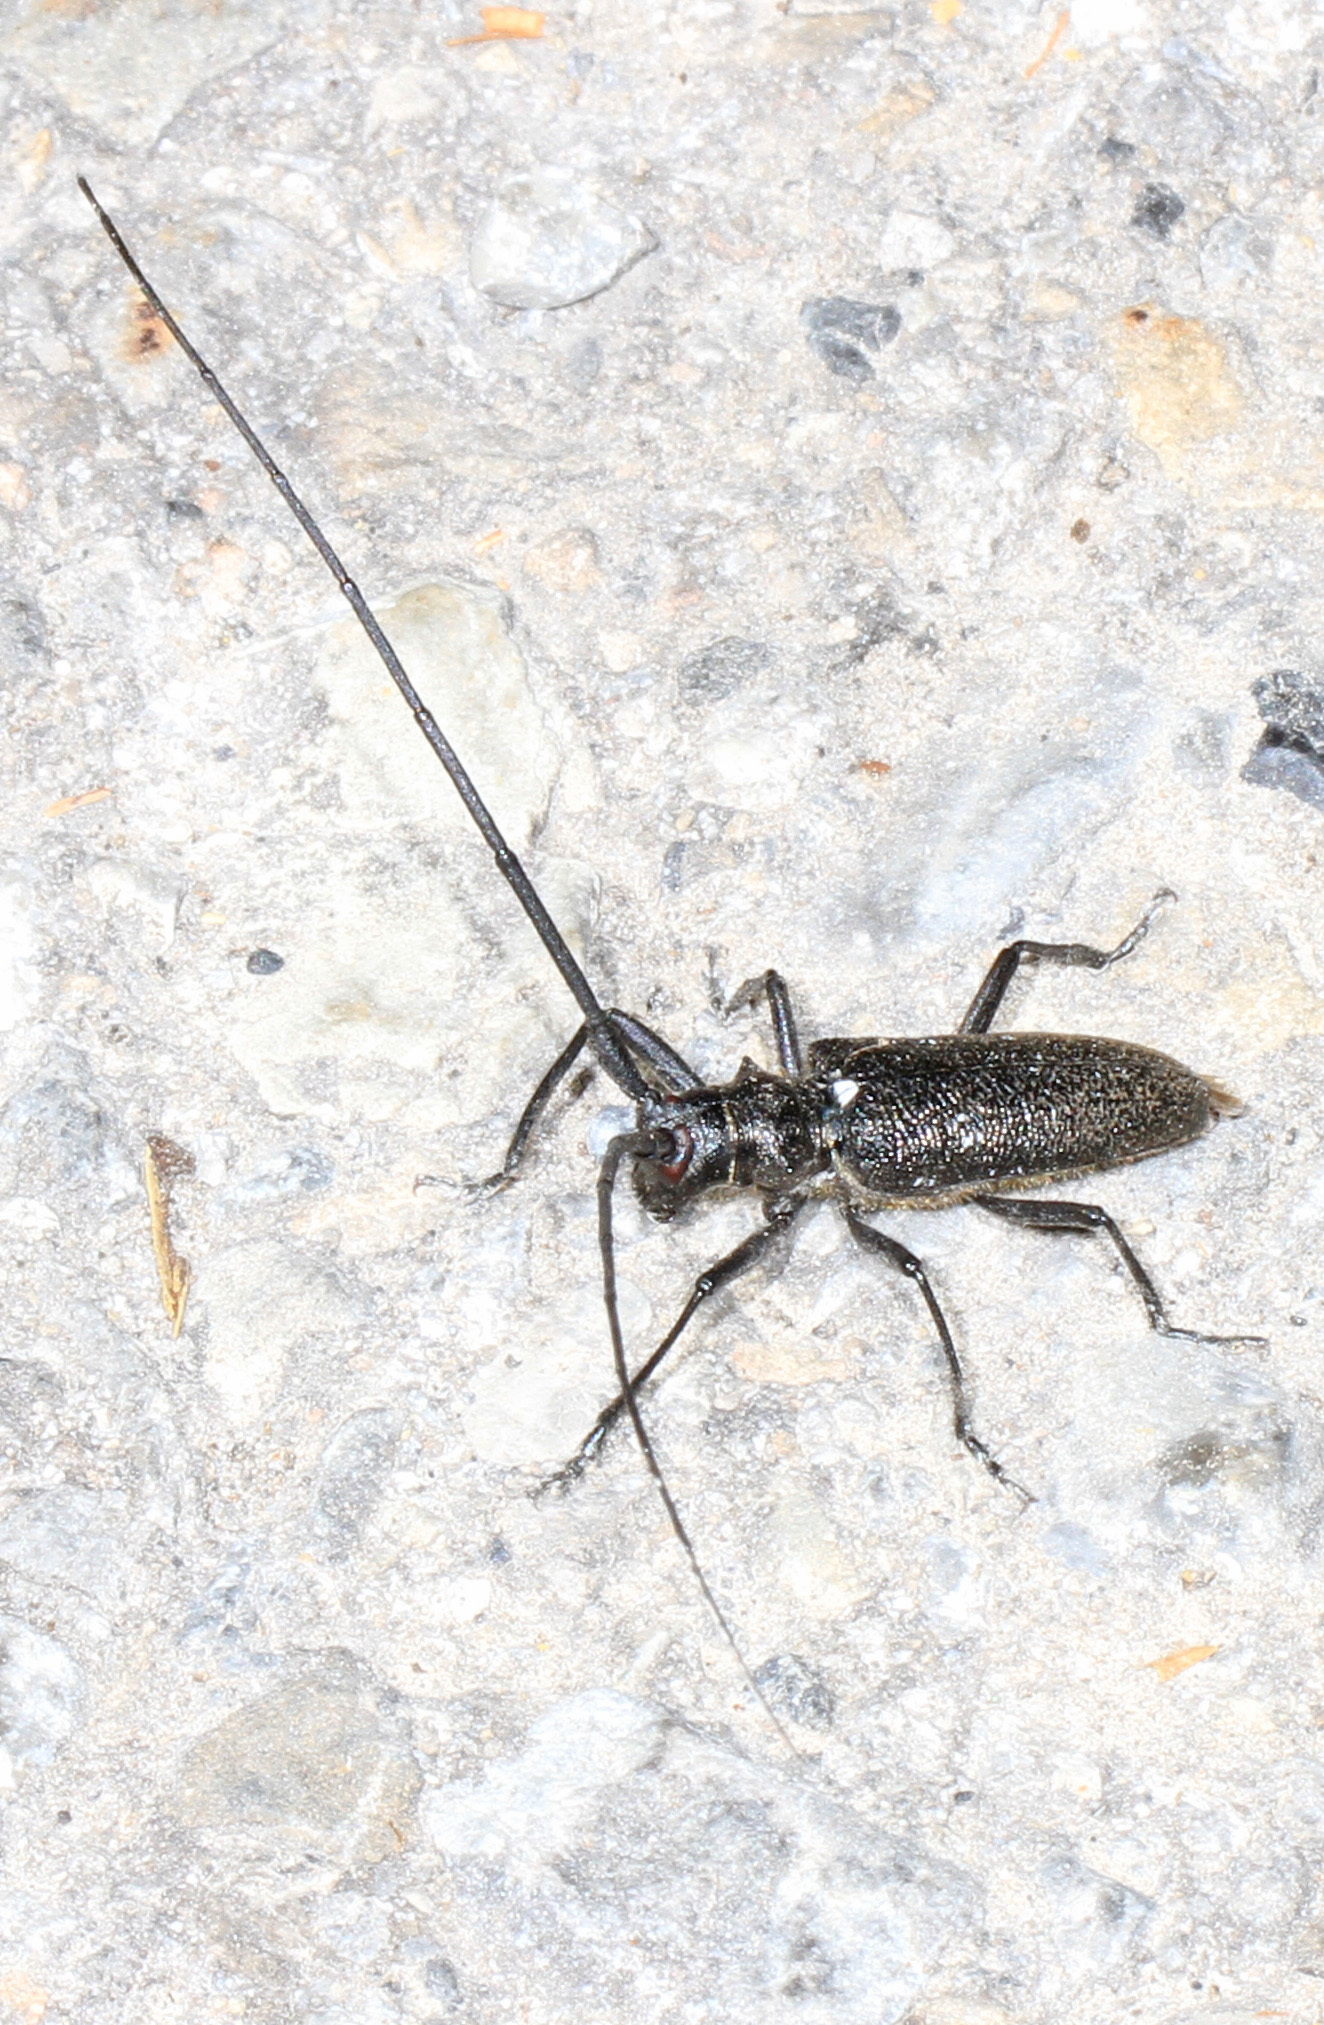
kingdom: Animalia
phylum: Arthropoda
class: Insecta
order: Coleoptera
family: Cerambycidae
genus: Monochamus
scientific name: Monochamus scutellatus
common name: White-spotted sawyer beetle
